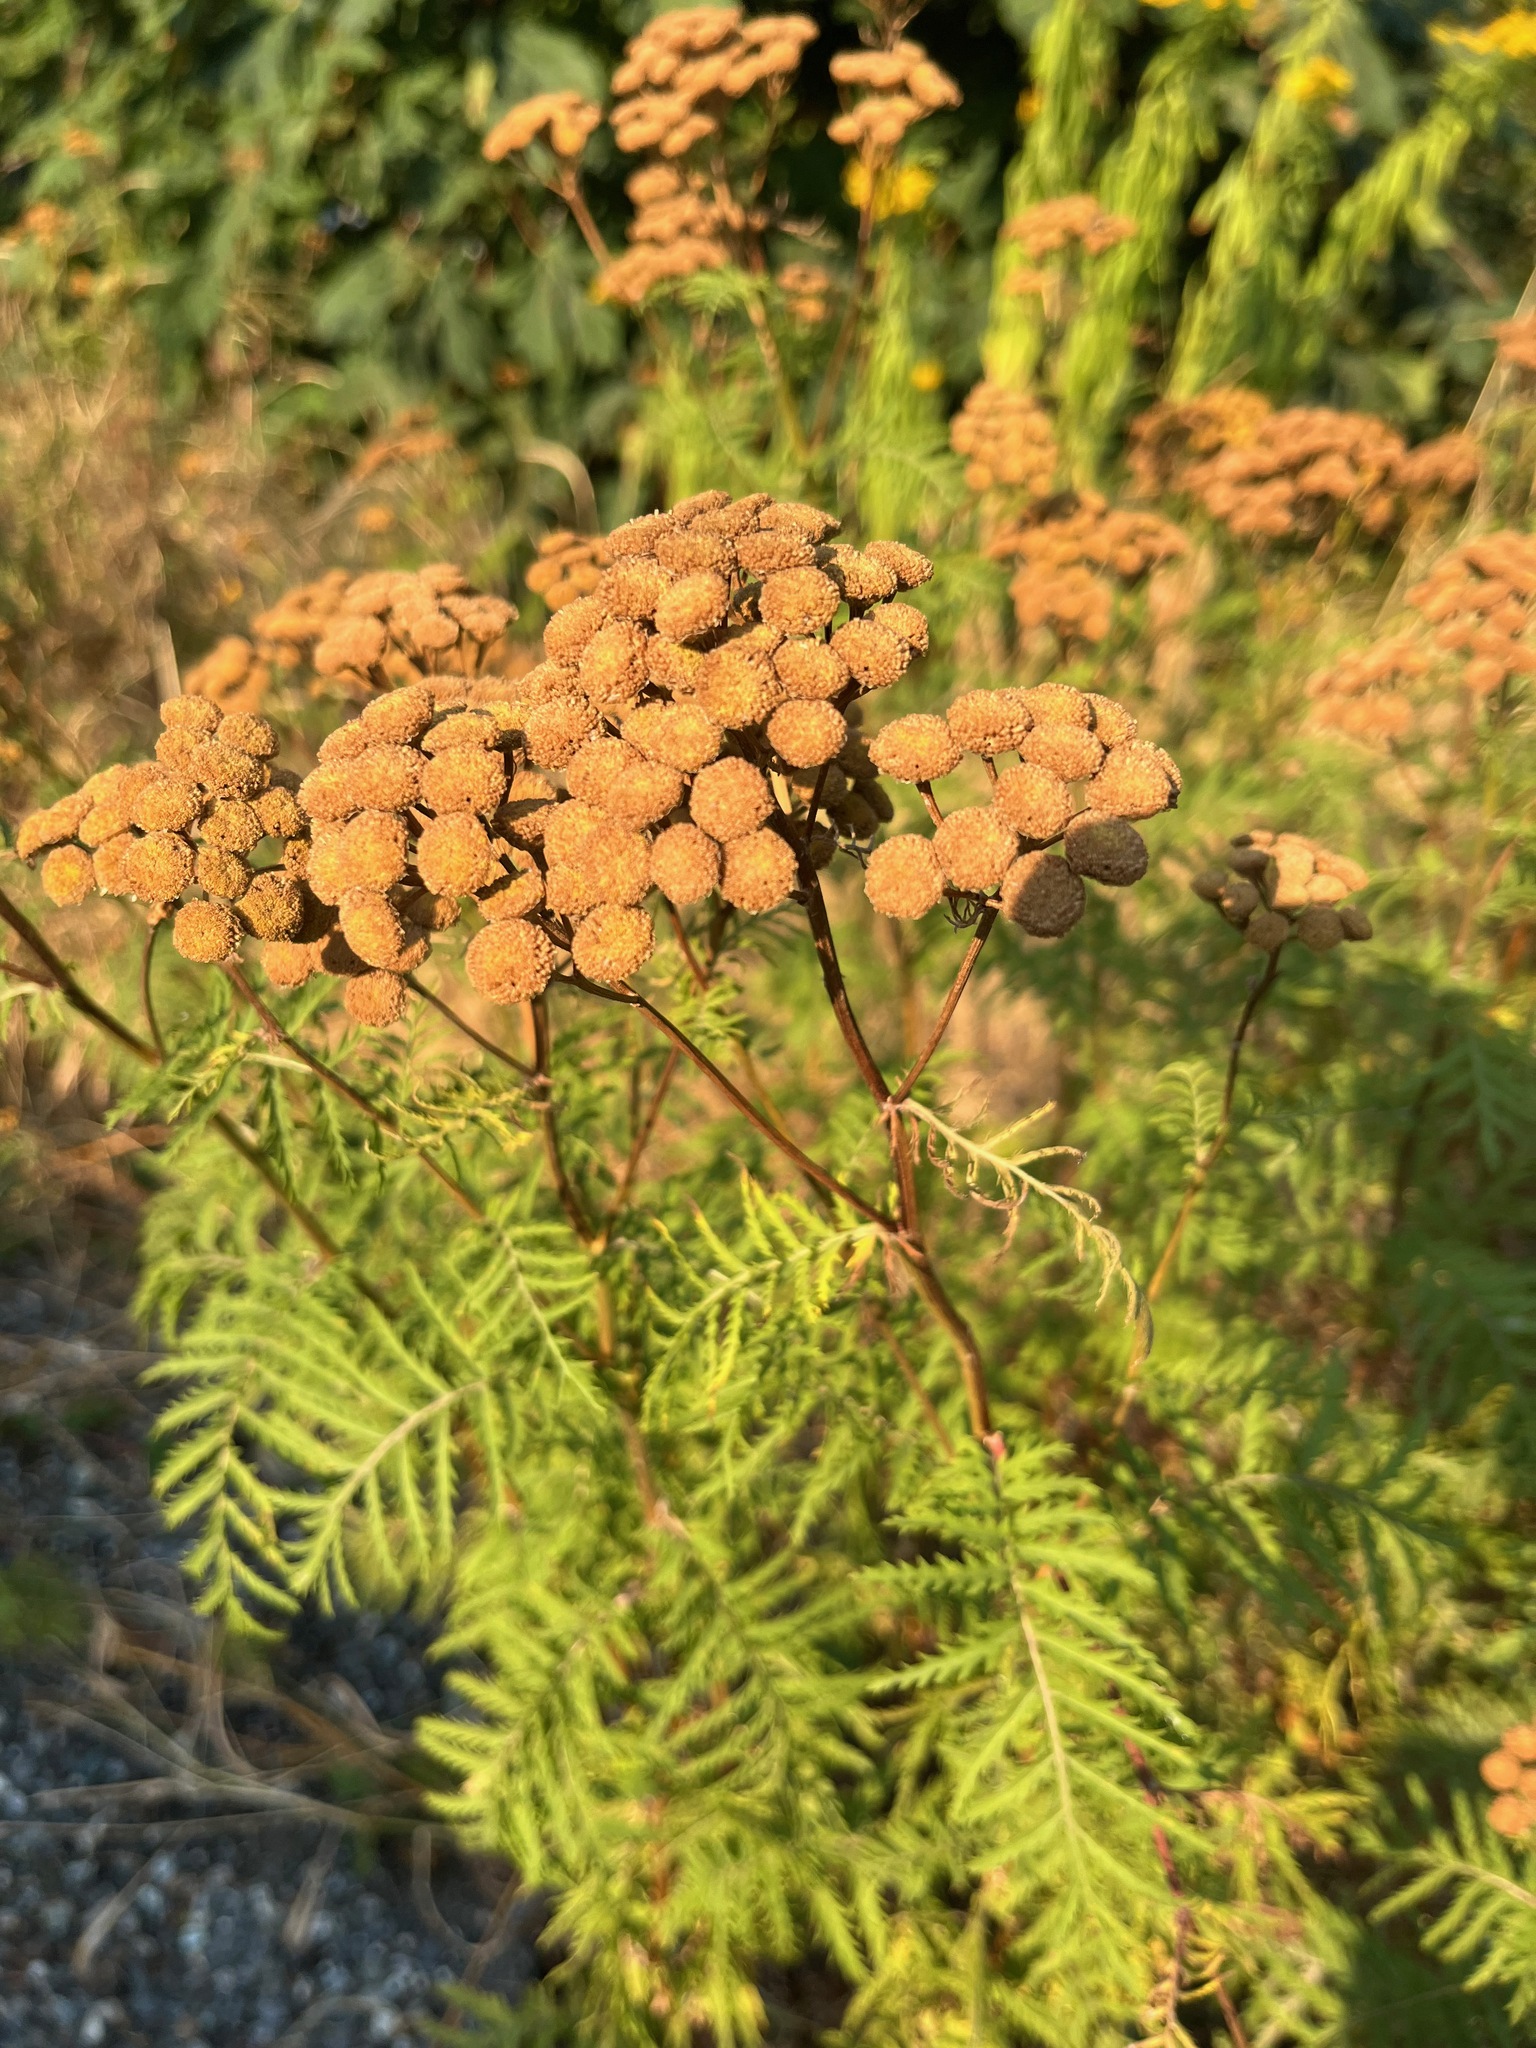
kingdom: Plantae
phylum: Tracheophyta
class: Magnoliopsida
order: Asterales
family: Asteraceae
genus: Tanacetum
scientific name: Tanacetum vulgare
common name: Common tansy
